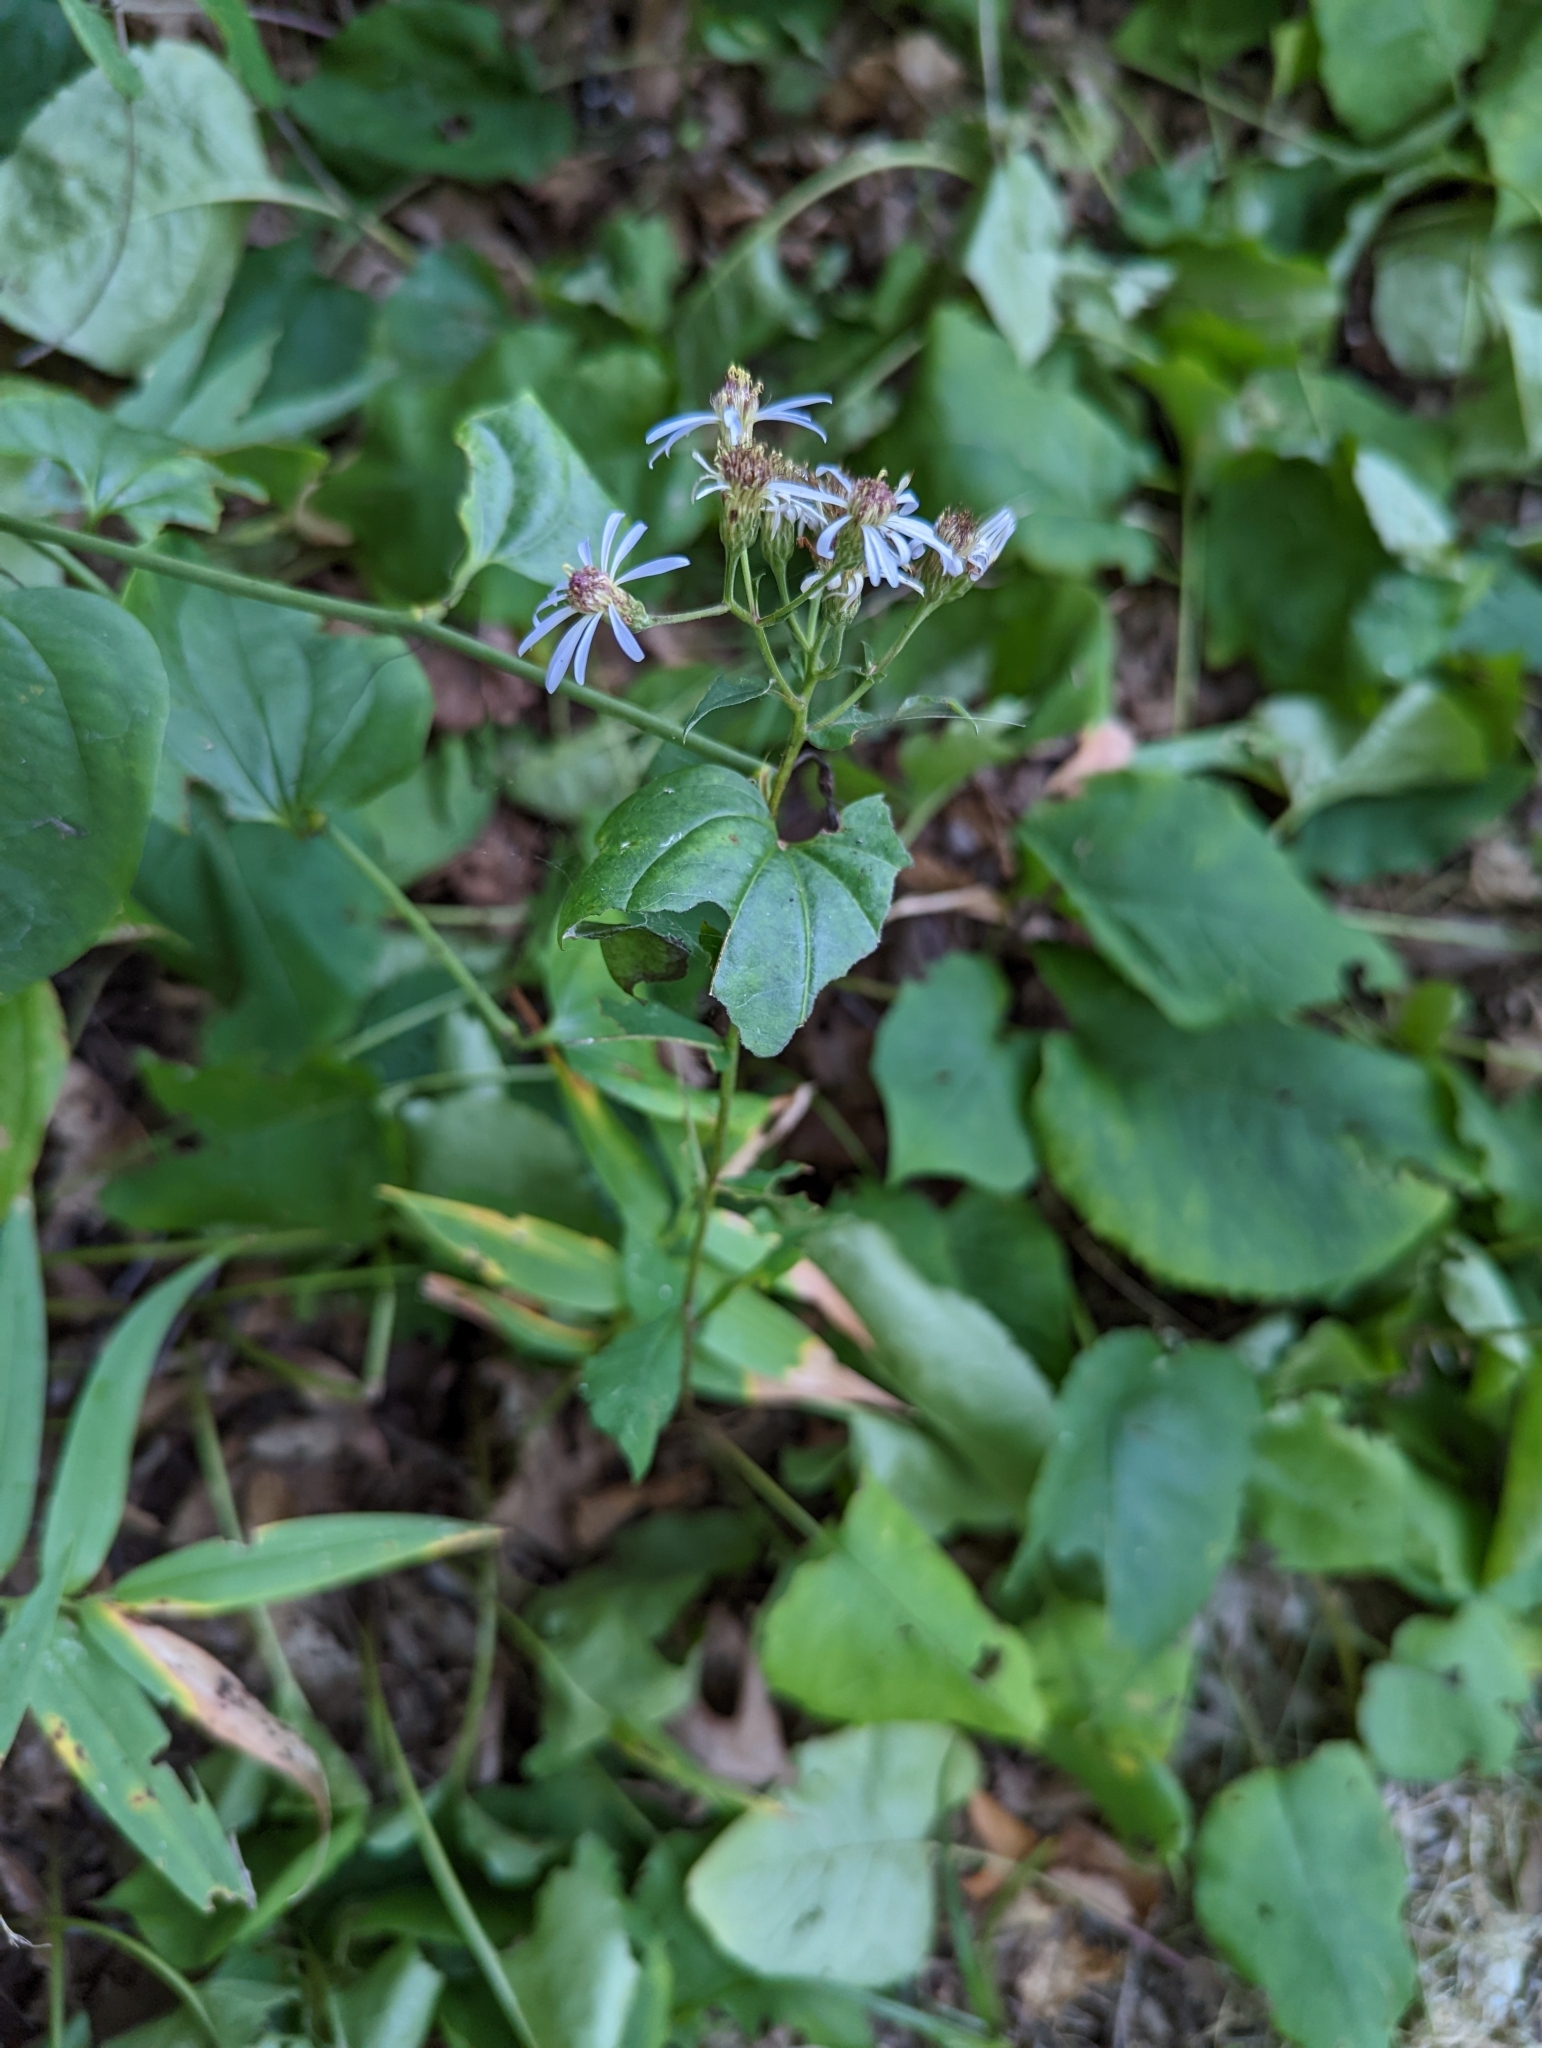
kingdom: Plantae
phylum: Tracheophyta
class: Magnoliopsida
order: Asterales
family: Asteraceae
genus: Eurybia
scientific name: Eurybia macrophylla
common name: Big-leaved aster
